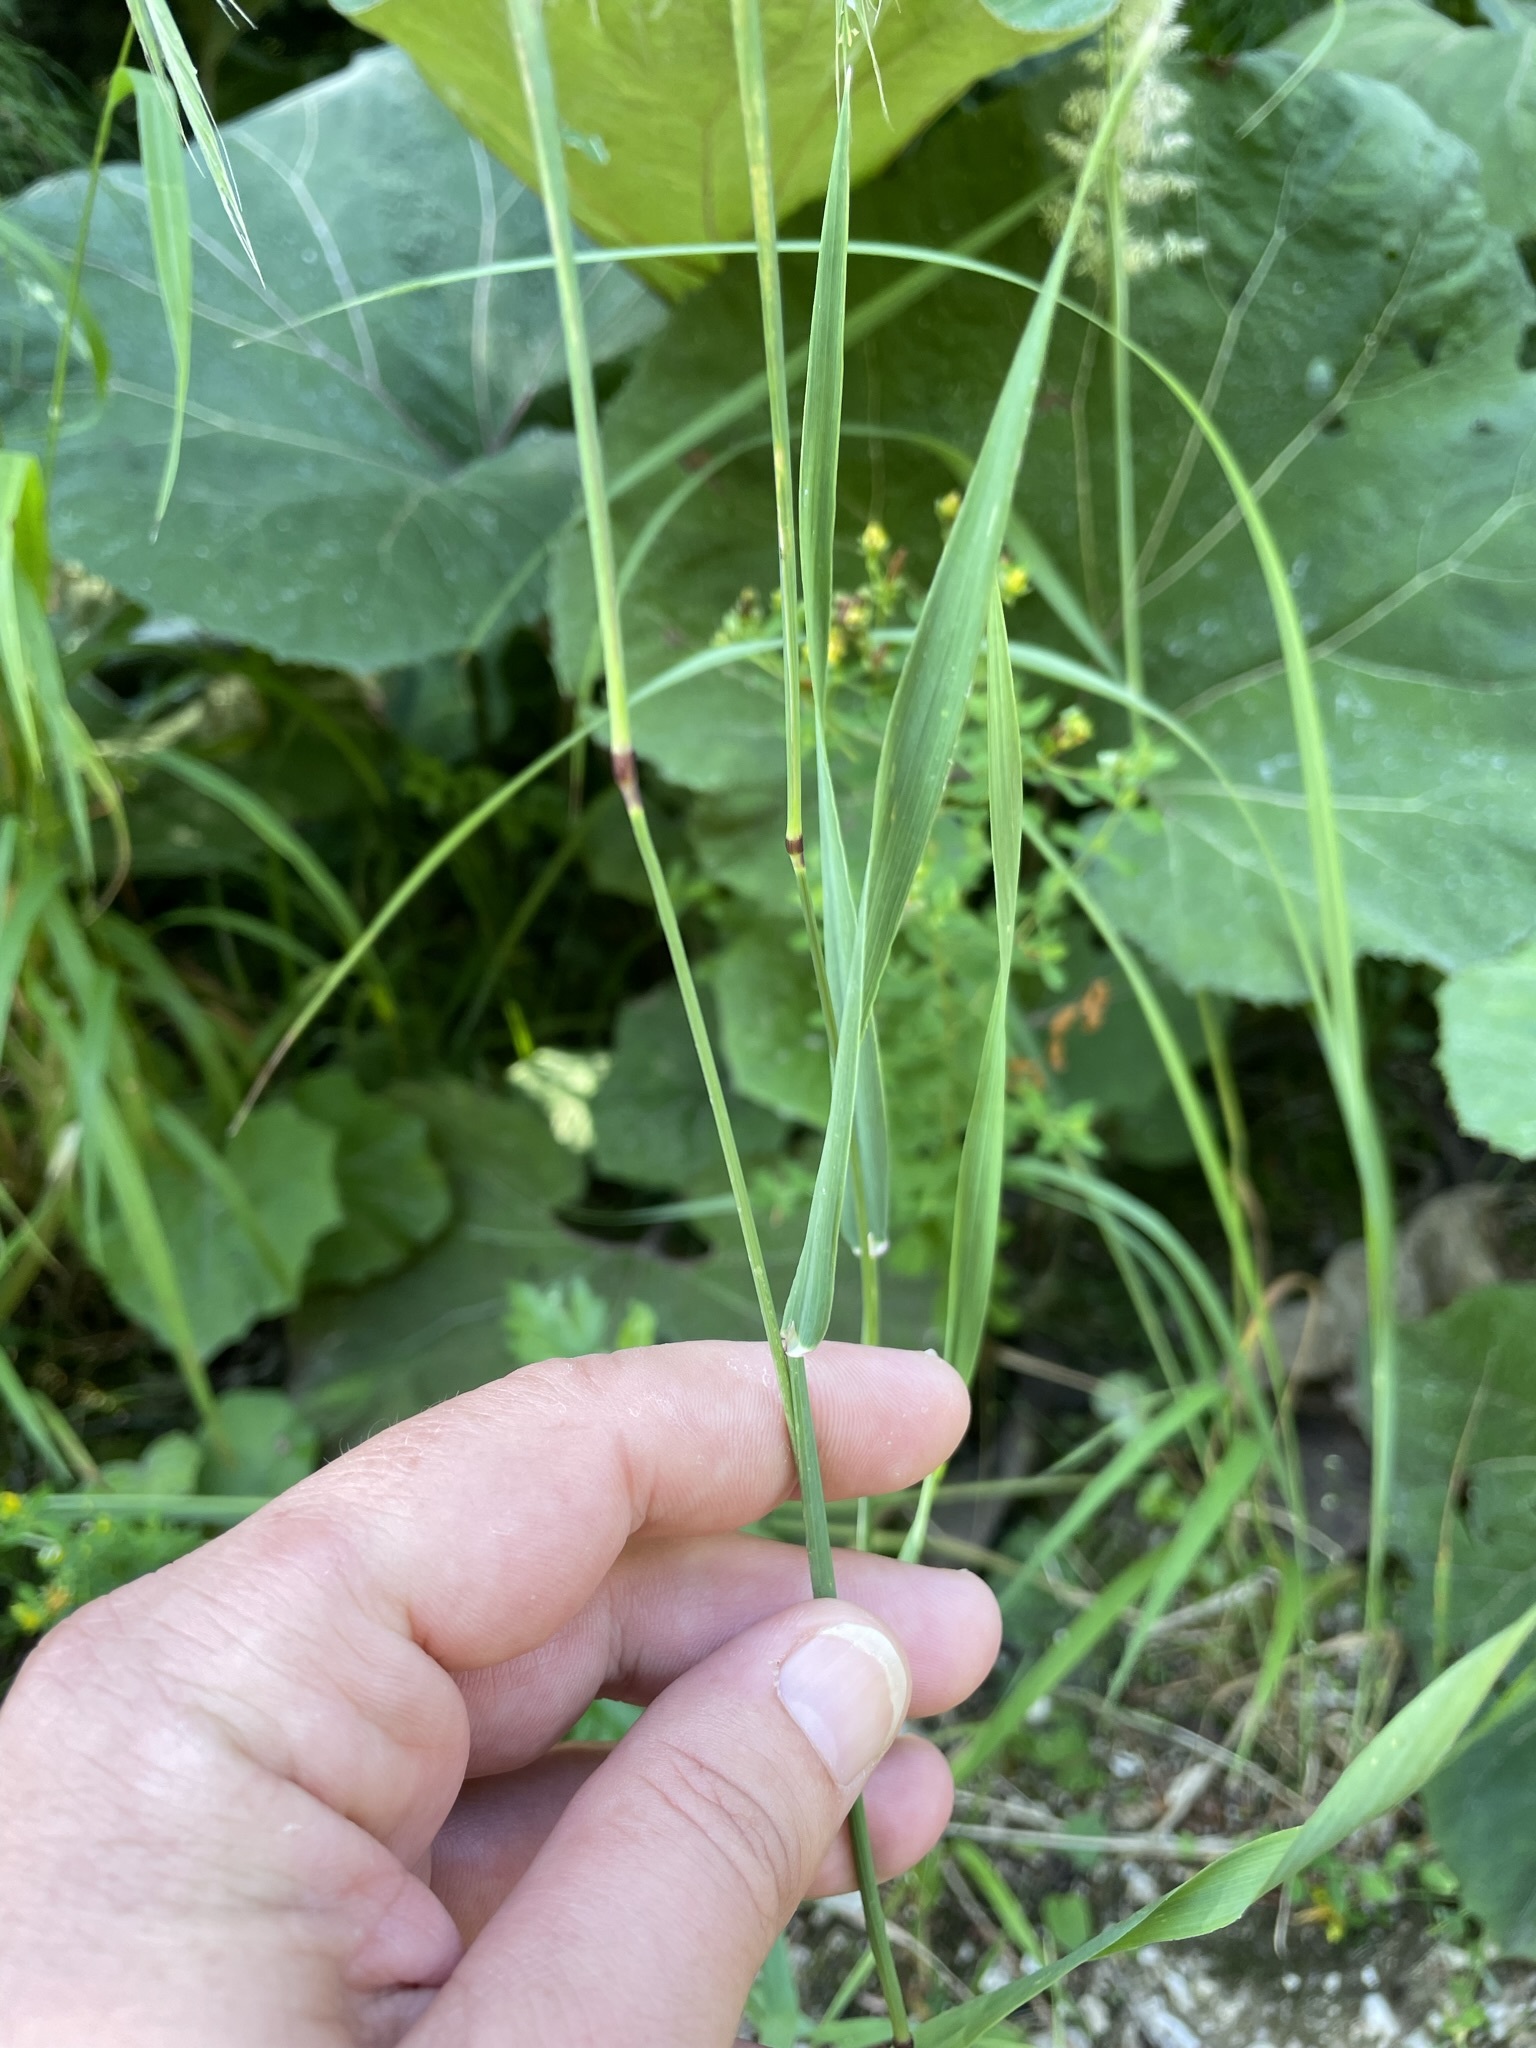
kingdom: Plantae
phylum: Tracheophyta
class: Liliopsida
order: Poales
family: Poaceae
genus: Phleum
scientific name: Phleum pratense
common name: Timothy grass
